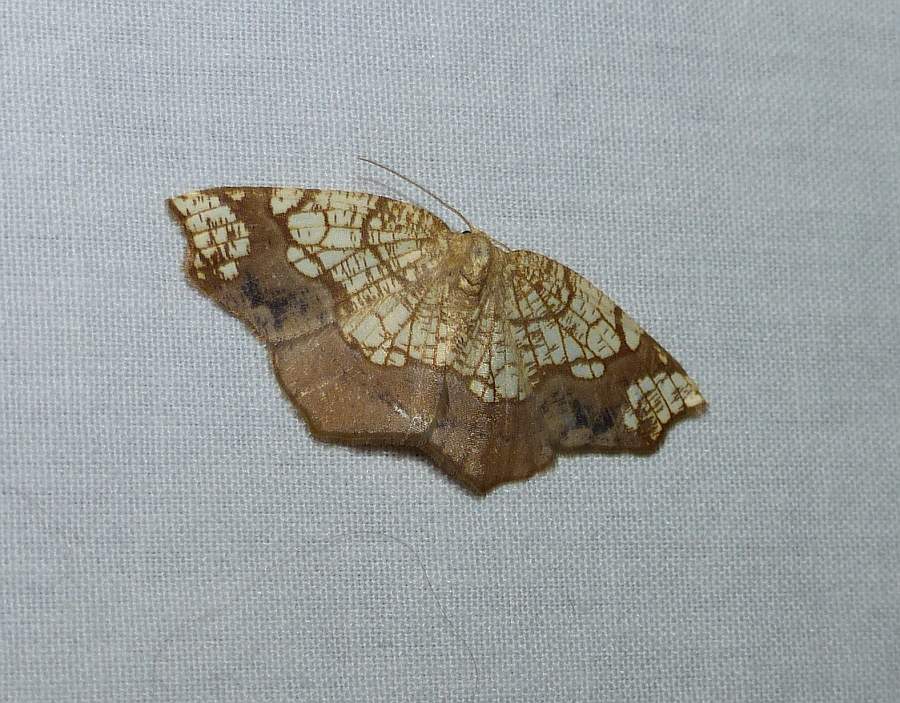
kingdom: Animalia
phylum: Arthropoda
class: Insecta
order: Lepidoptera
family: Geometridae
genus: Nematocampa
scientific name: Nematocampa resistaria
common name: Horned spanworm moth
